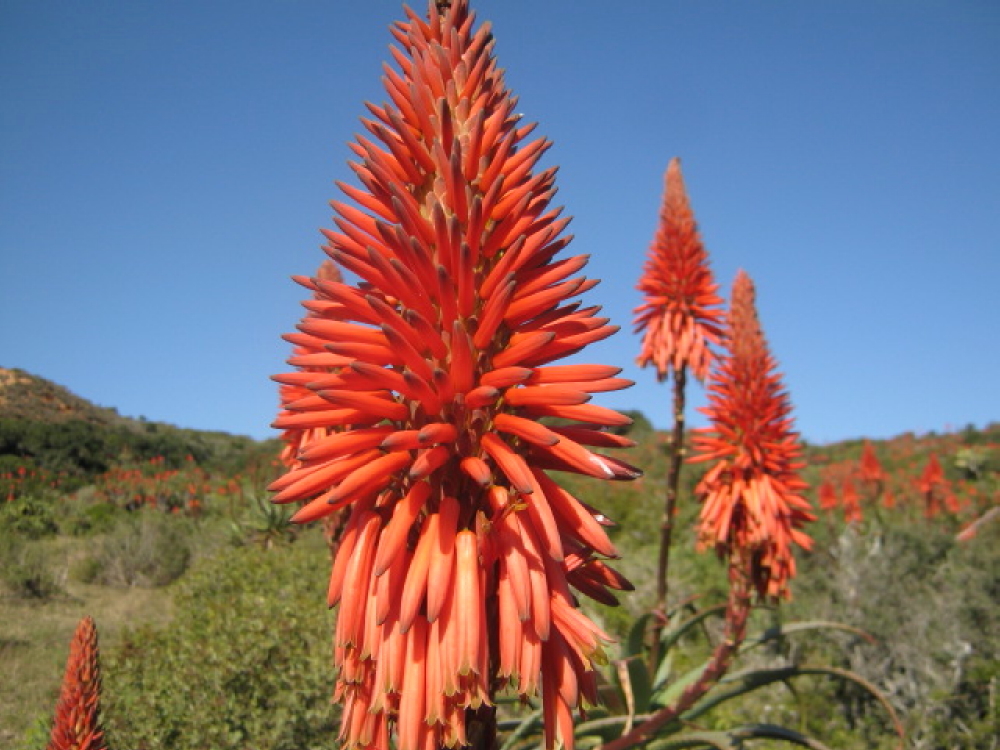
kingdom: Plantae
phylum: Tracheophyta
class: Liliopsida
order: Asparagales
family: Asphodelaceae
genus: Aloe
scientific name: Aloe arborescens
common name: Candelabra aloe
